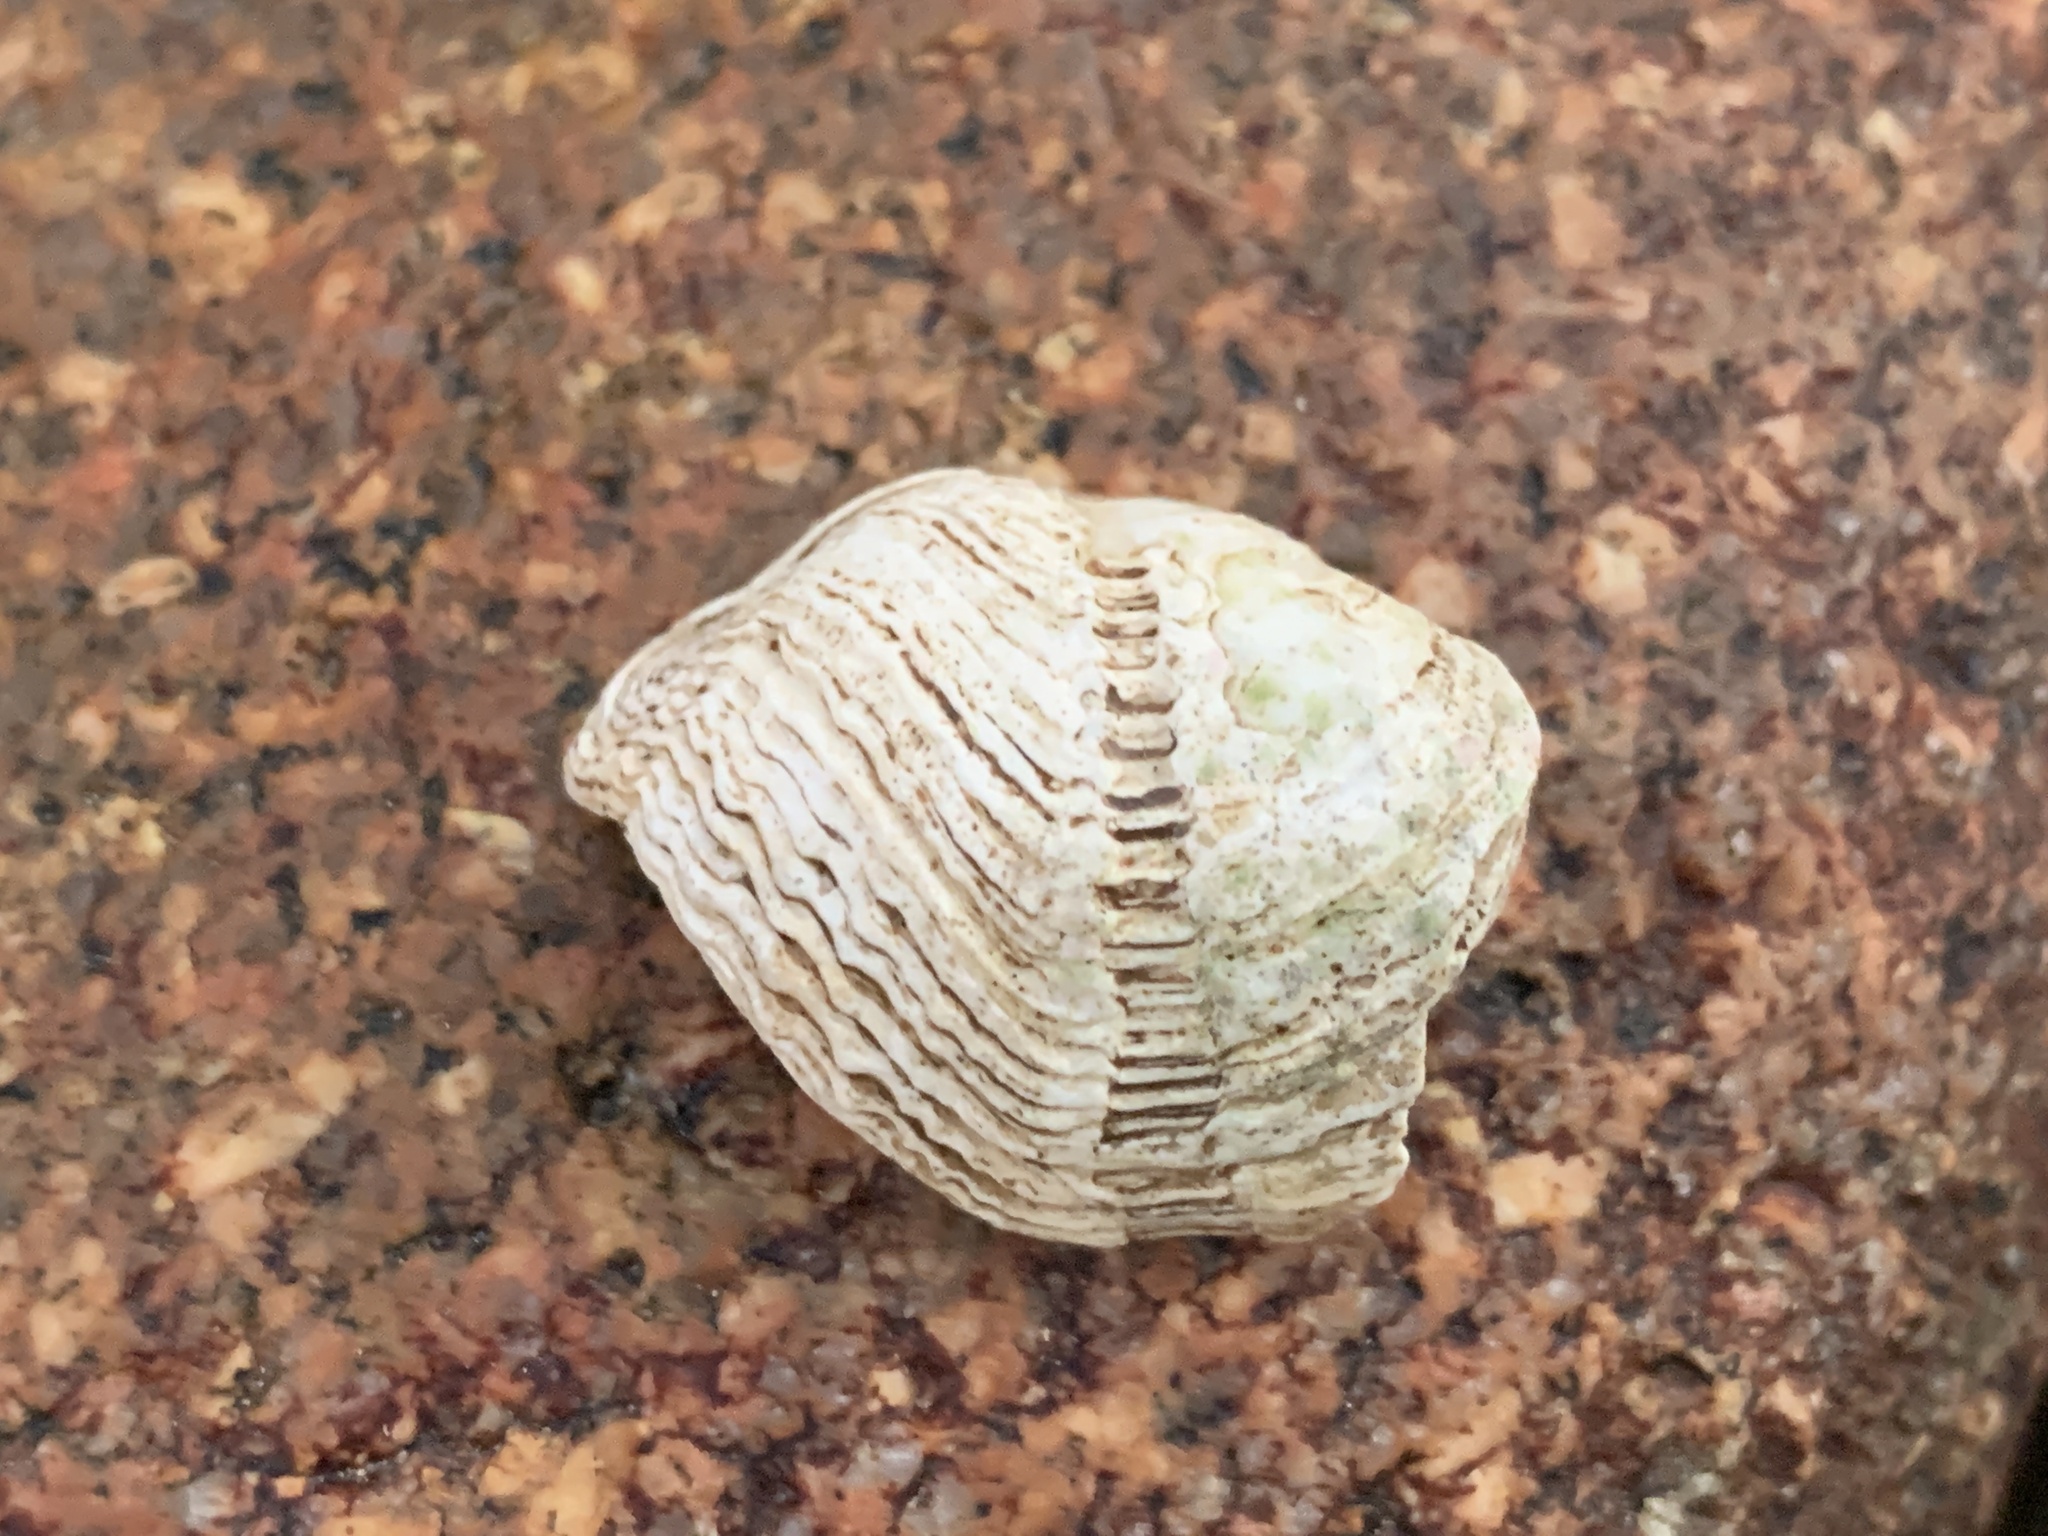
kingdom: Animalia
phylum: Mollusca
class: Bivalvia
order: Myida
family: Pholadidae
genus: Zirfaea
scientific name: Zirfaea crispata
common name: Oval piddock
